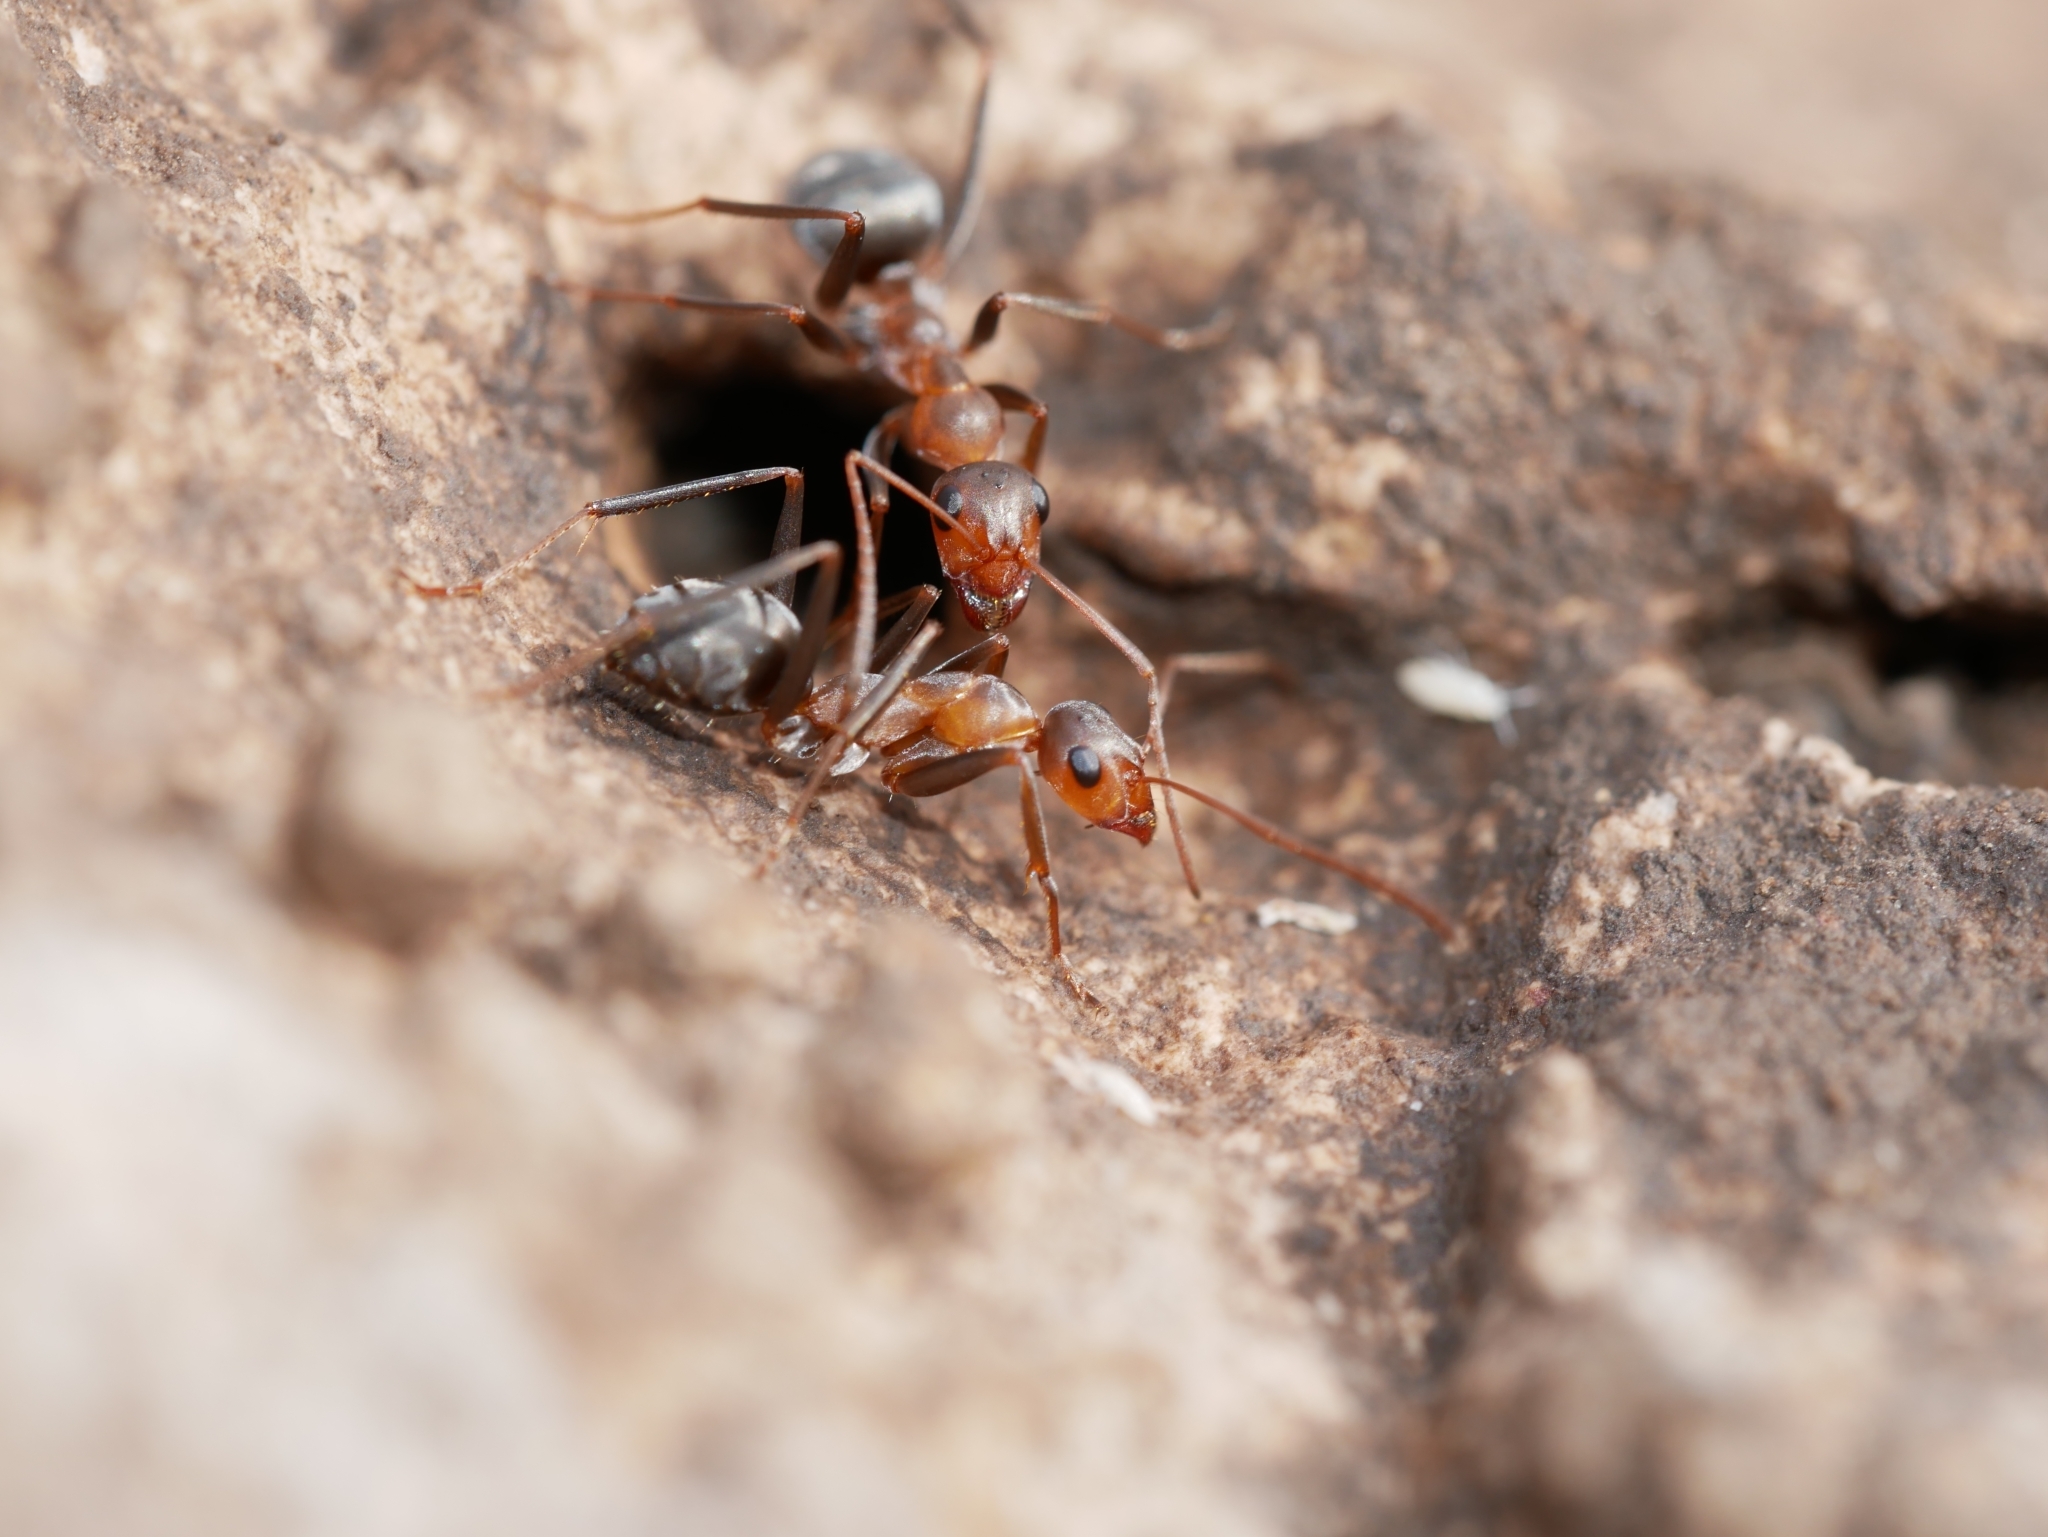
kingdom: Animalia
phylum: Arthropoda
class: Insecta
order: Hymenoptera
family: Formicidae
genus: Formica
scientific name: Formica xerophila
